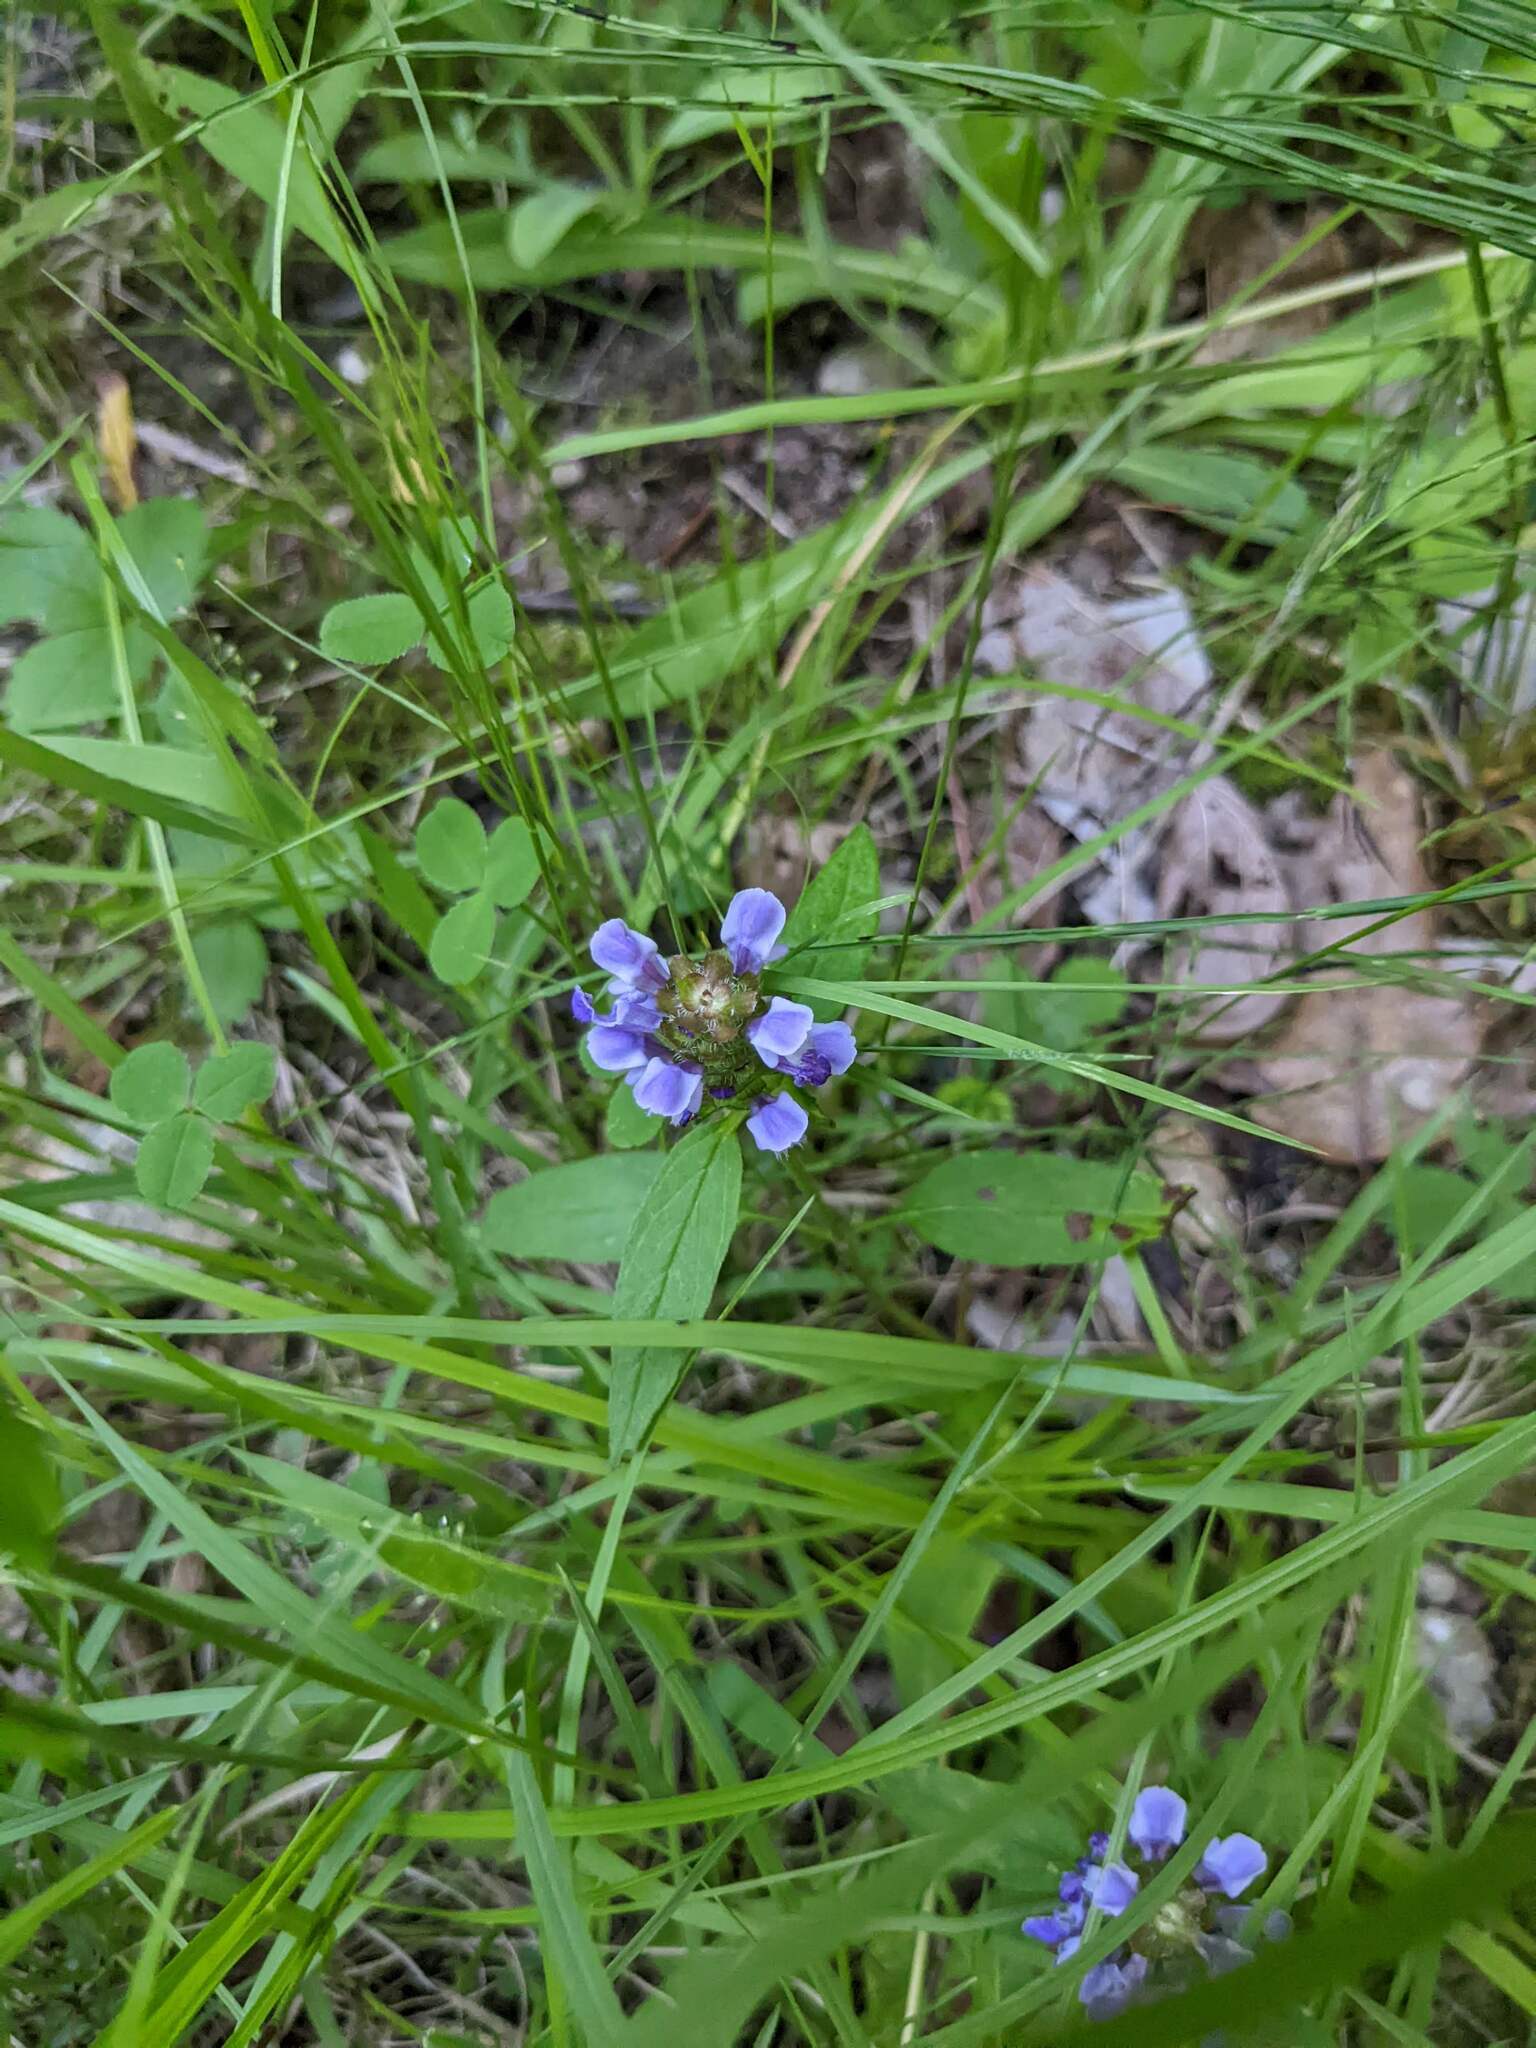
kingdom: Plantae
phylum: Tracheophyta
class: Magnoliopsida
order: Lamiales
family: Lamiaceae
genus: Prunella
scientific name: Prunella vulgaris
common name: Heal-all
